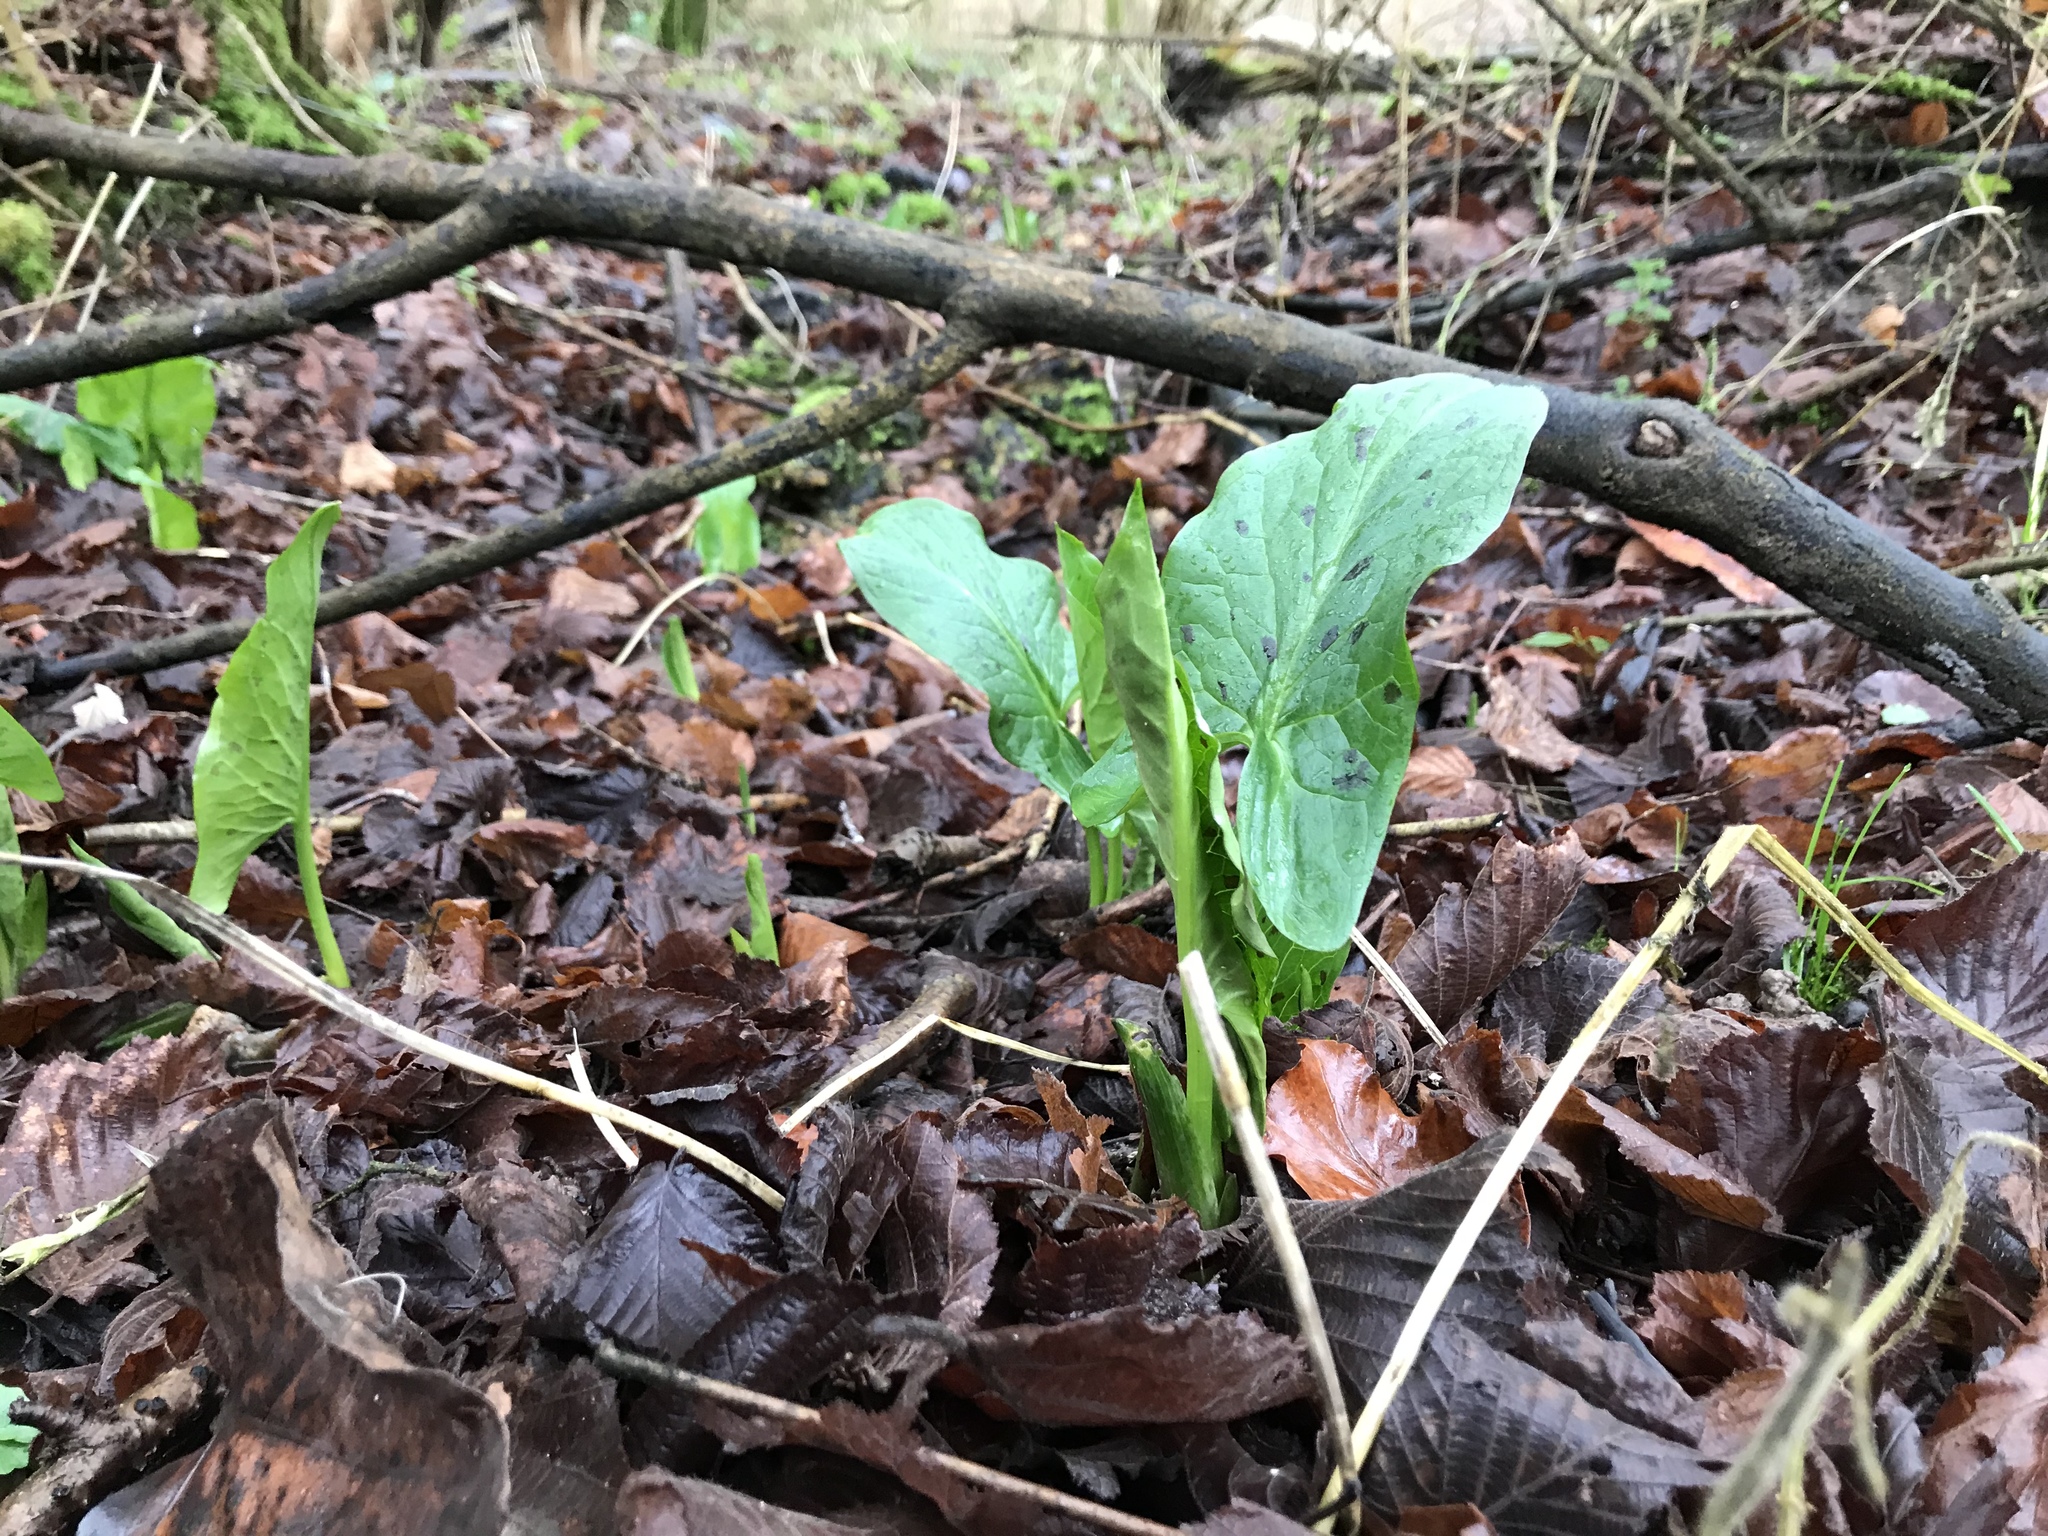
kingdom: Plantae
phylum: Tracheophyta
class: Liliopsida
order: Alismatales
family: Araceae
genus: Arum
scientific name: Arum maculatum
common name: Lords-and-ladies
